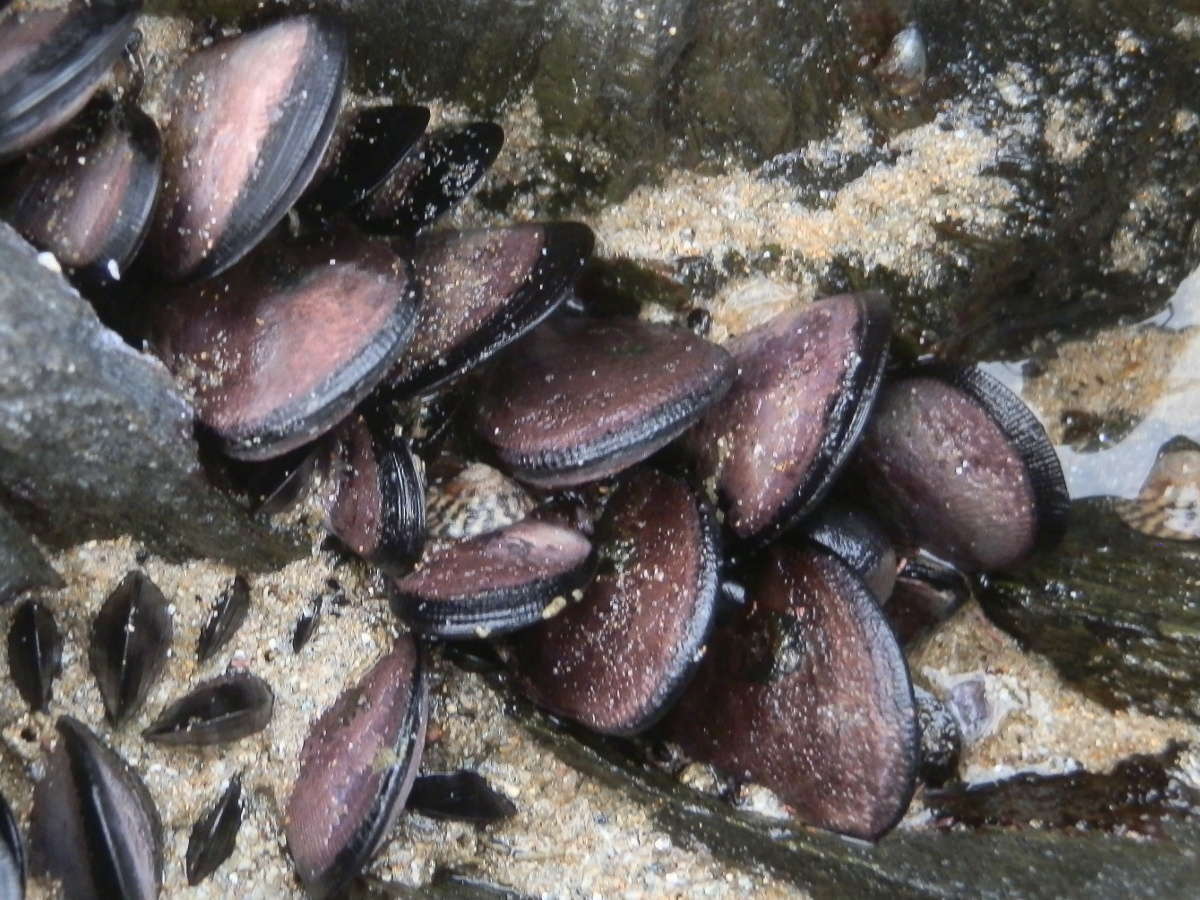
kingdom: Animalia
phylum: Mollusca
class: Bivalvia
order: Mytilida
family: Mytilidae
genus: Brachidontes
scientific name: Brachidontes rostratus
